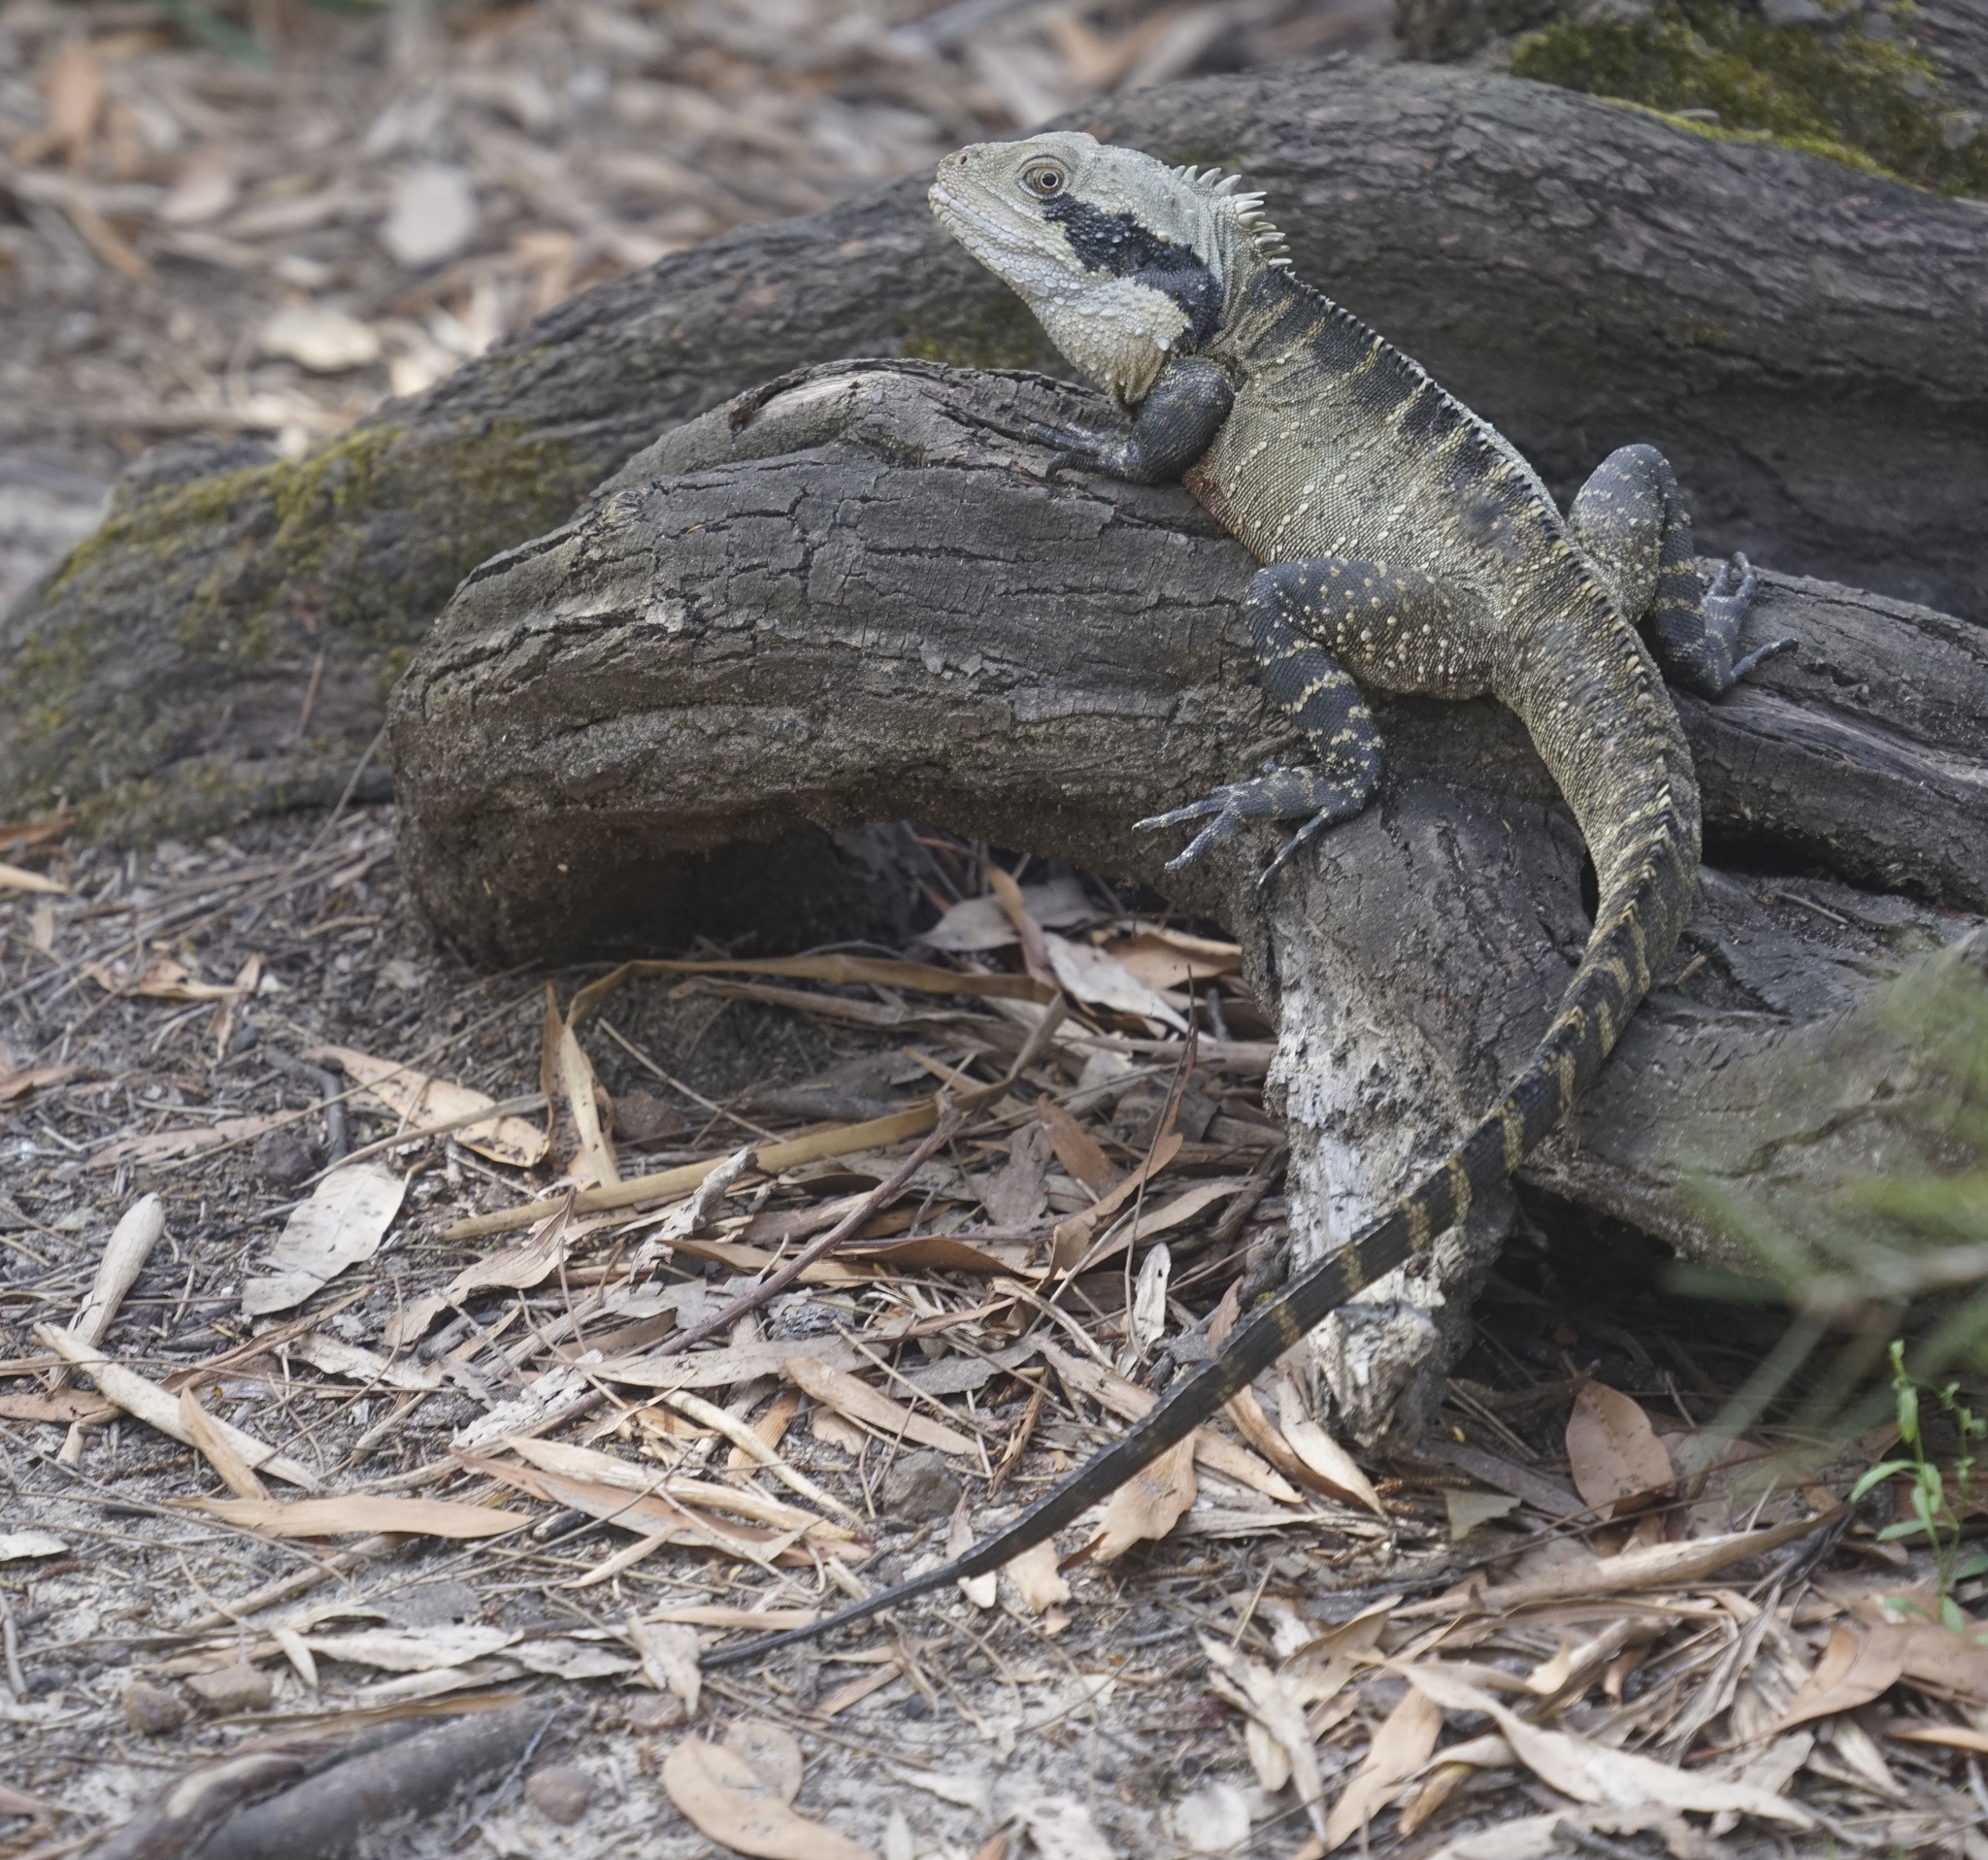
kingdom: Animalia
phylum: Chordata
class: Squamata
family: Agamidae
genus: Intellagama
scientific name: Intellagama lesueurii
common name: Eastern water dragon
